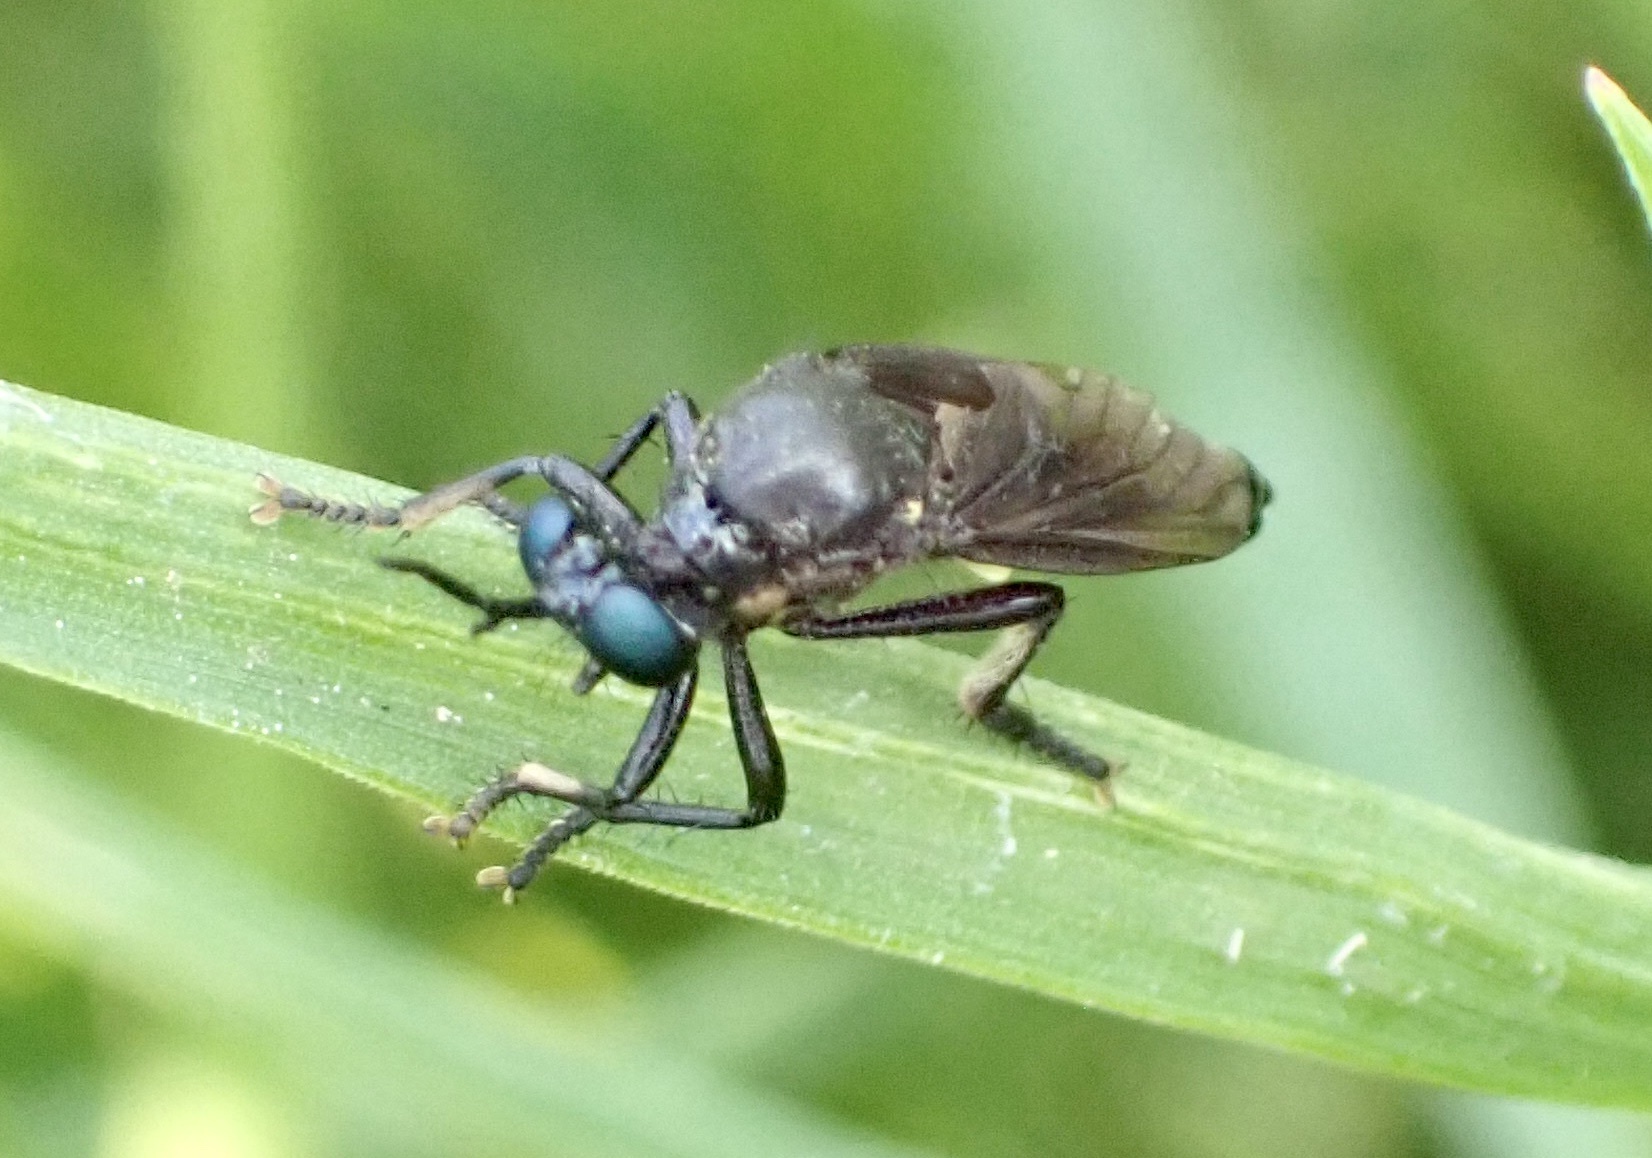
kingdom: Animalia
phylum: Arthropoda
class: Insecta
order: Diptera
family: Asilidae
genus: Dioctria
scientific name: Dioctria atricapilla
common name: Violet black-legged
